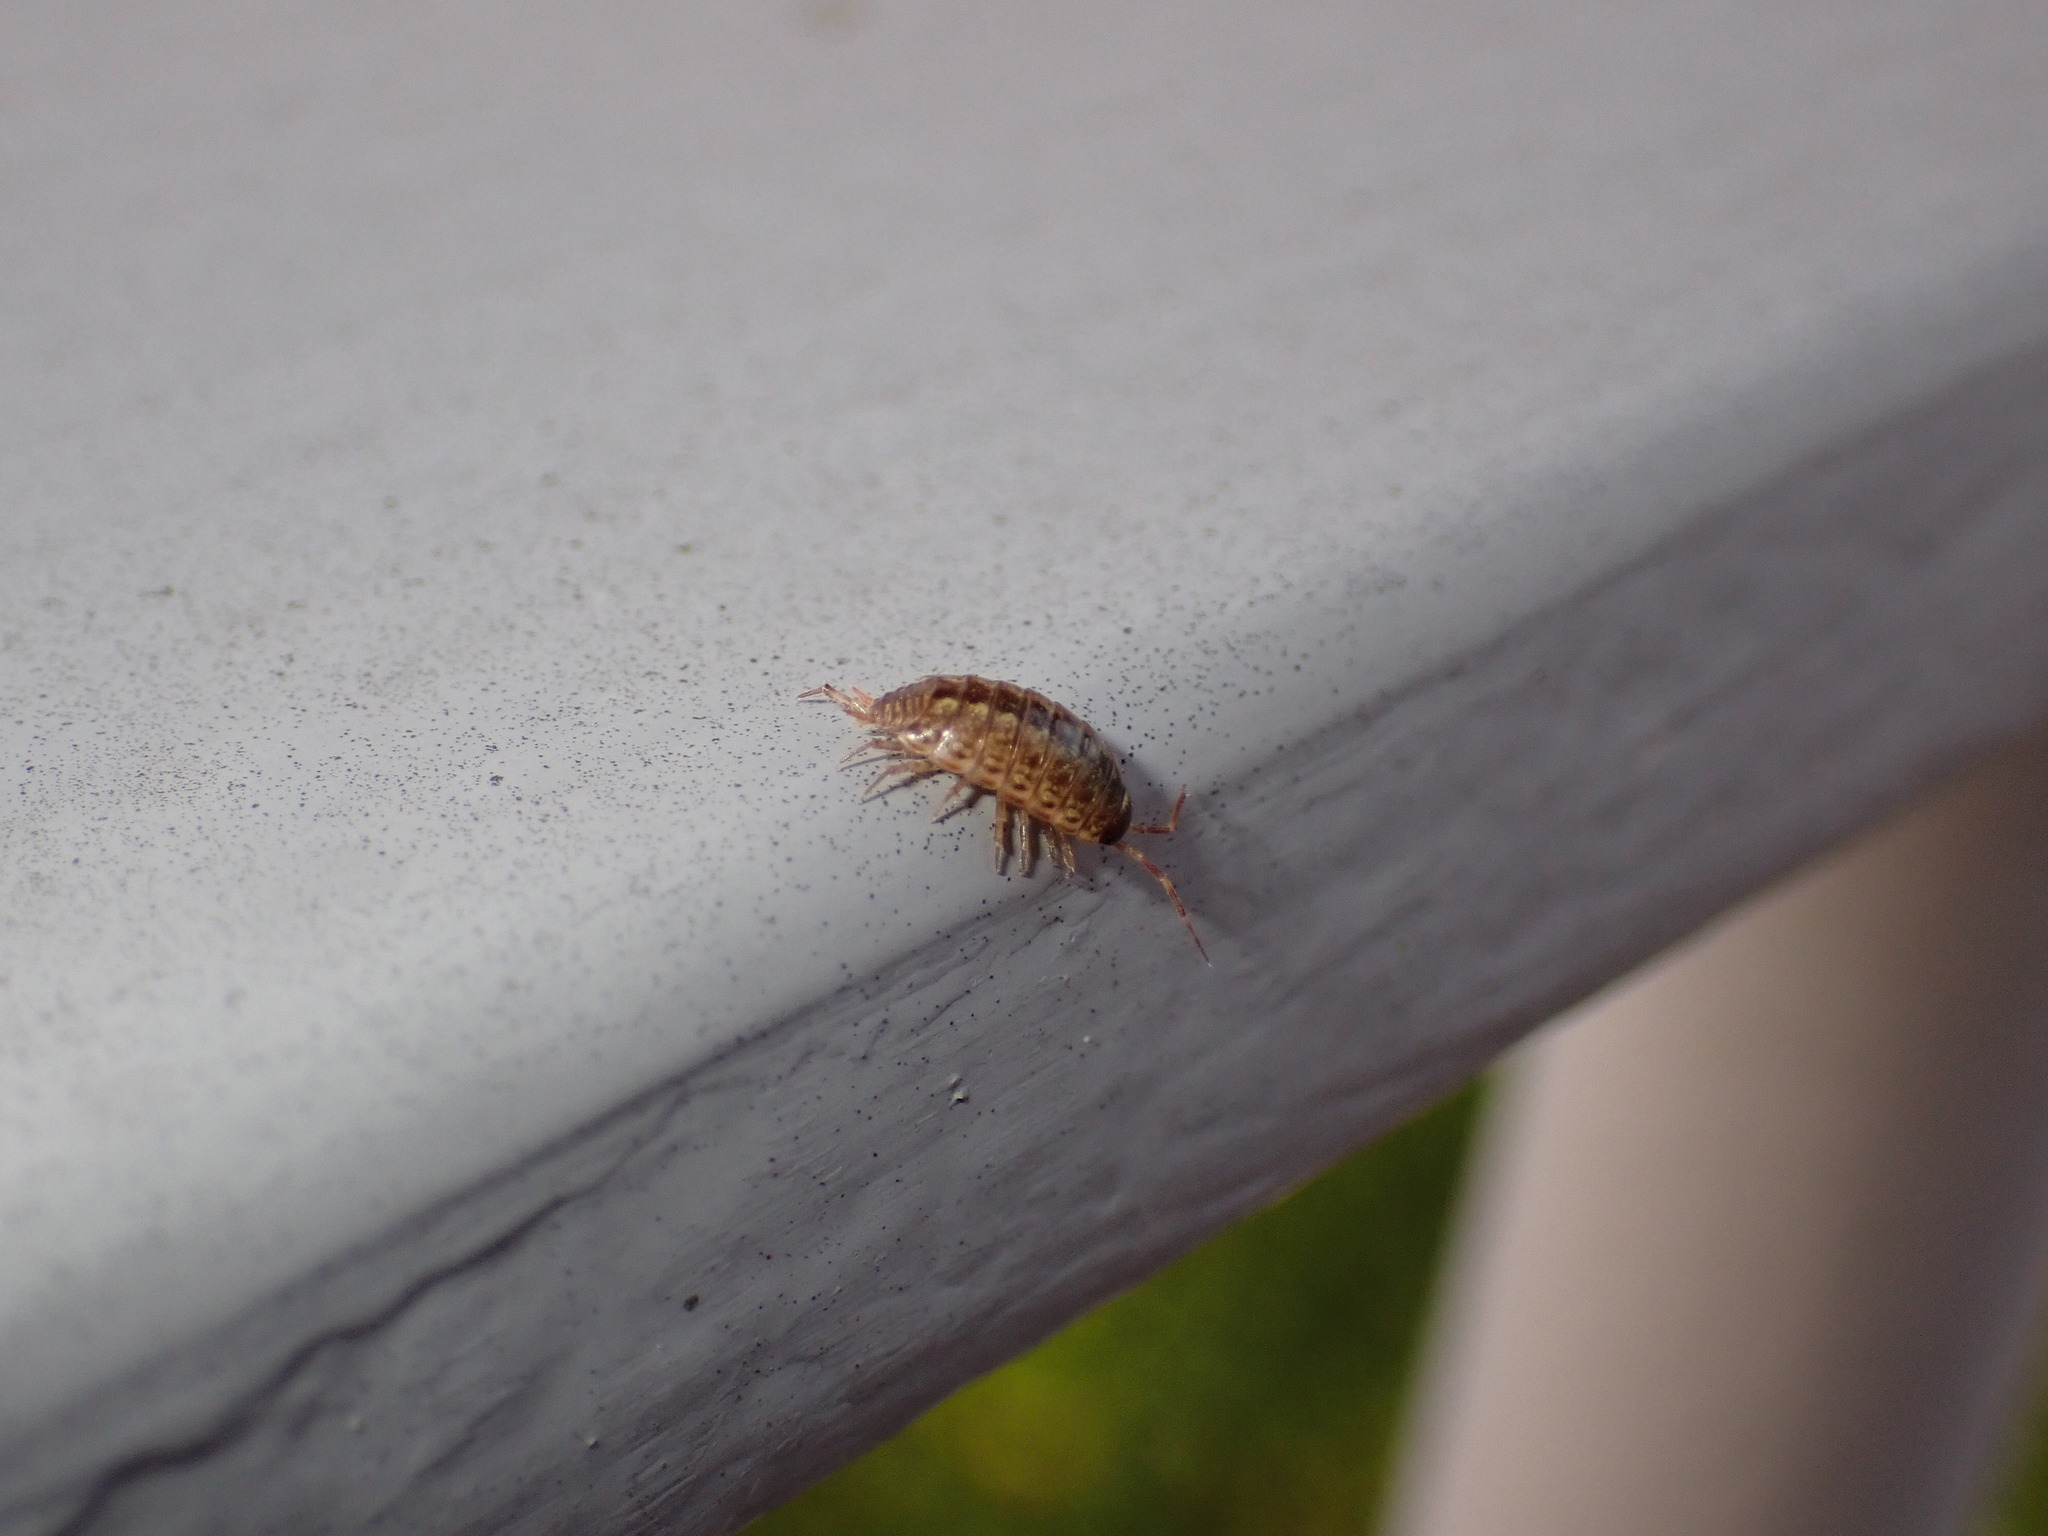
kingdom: Animalia
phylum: Arthropoda
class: Malacostraca
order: Isopoda
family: Philosciidae
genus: Philoscia
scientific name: Philoscia muscorum
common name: Common striped woodlouse
